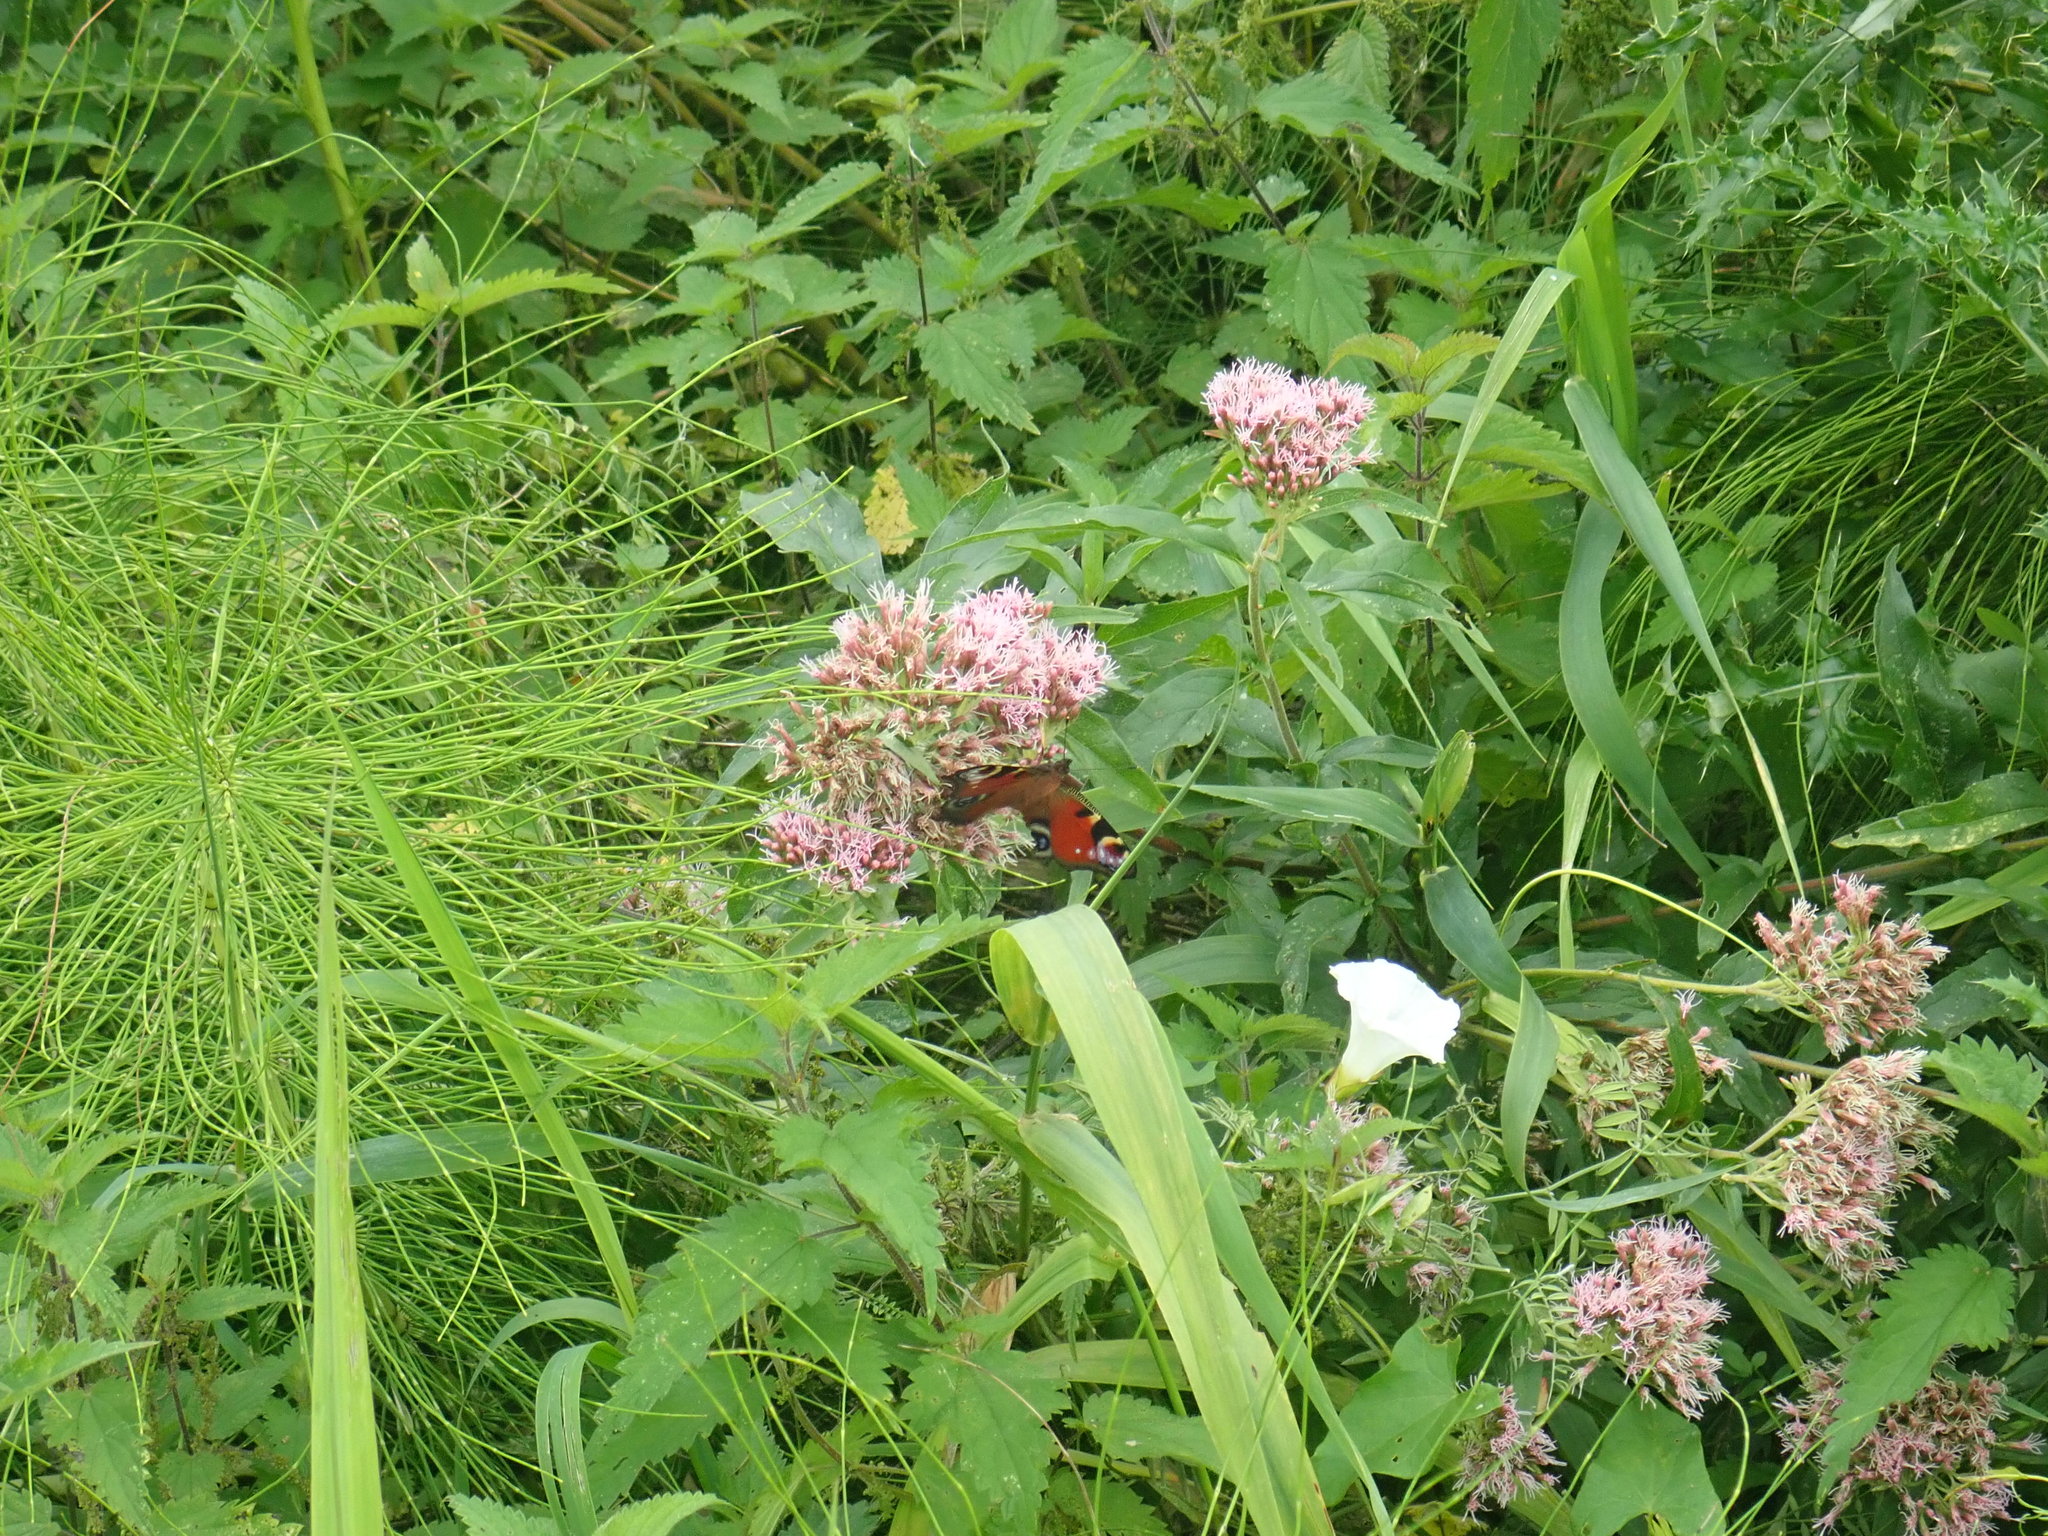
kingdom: Animalia
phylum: Arthropoda
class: Insecta
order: Lepidoptera
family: Nymphalidae
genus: Aglais
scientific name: Aglais io
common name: Peacock
